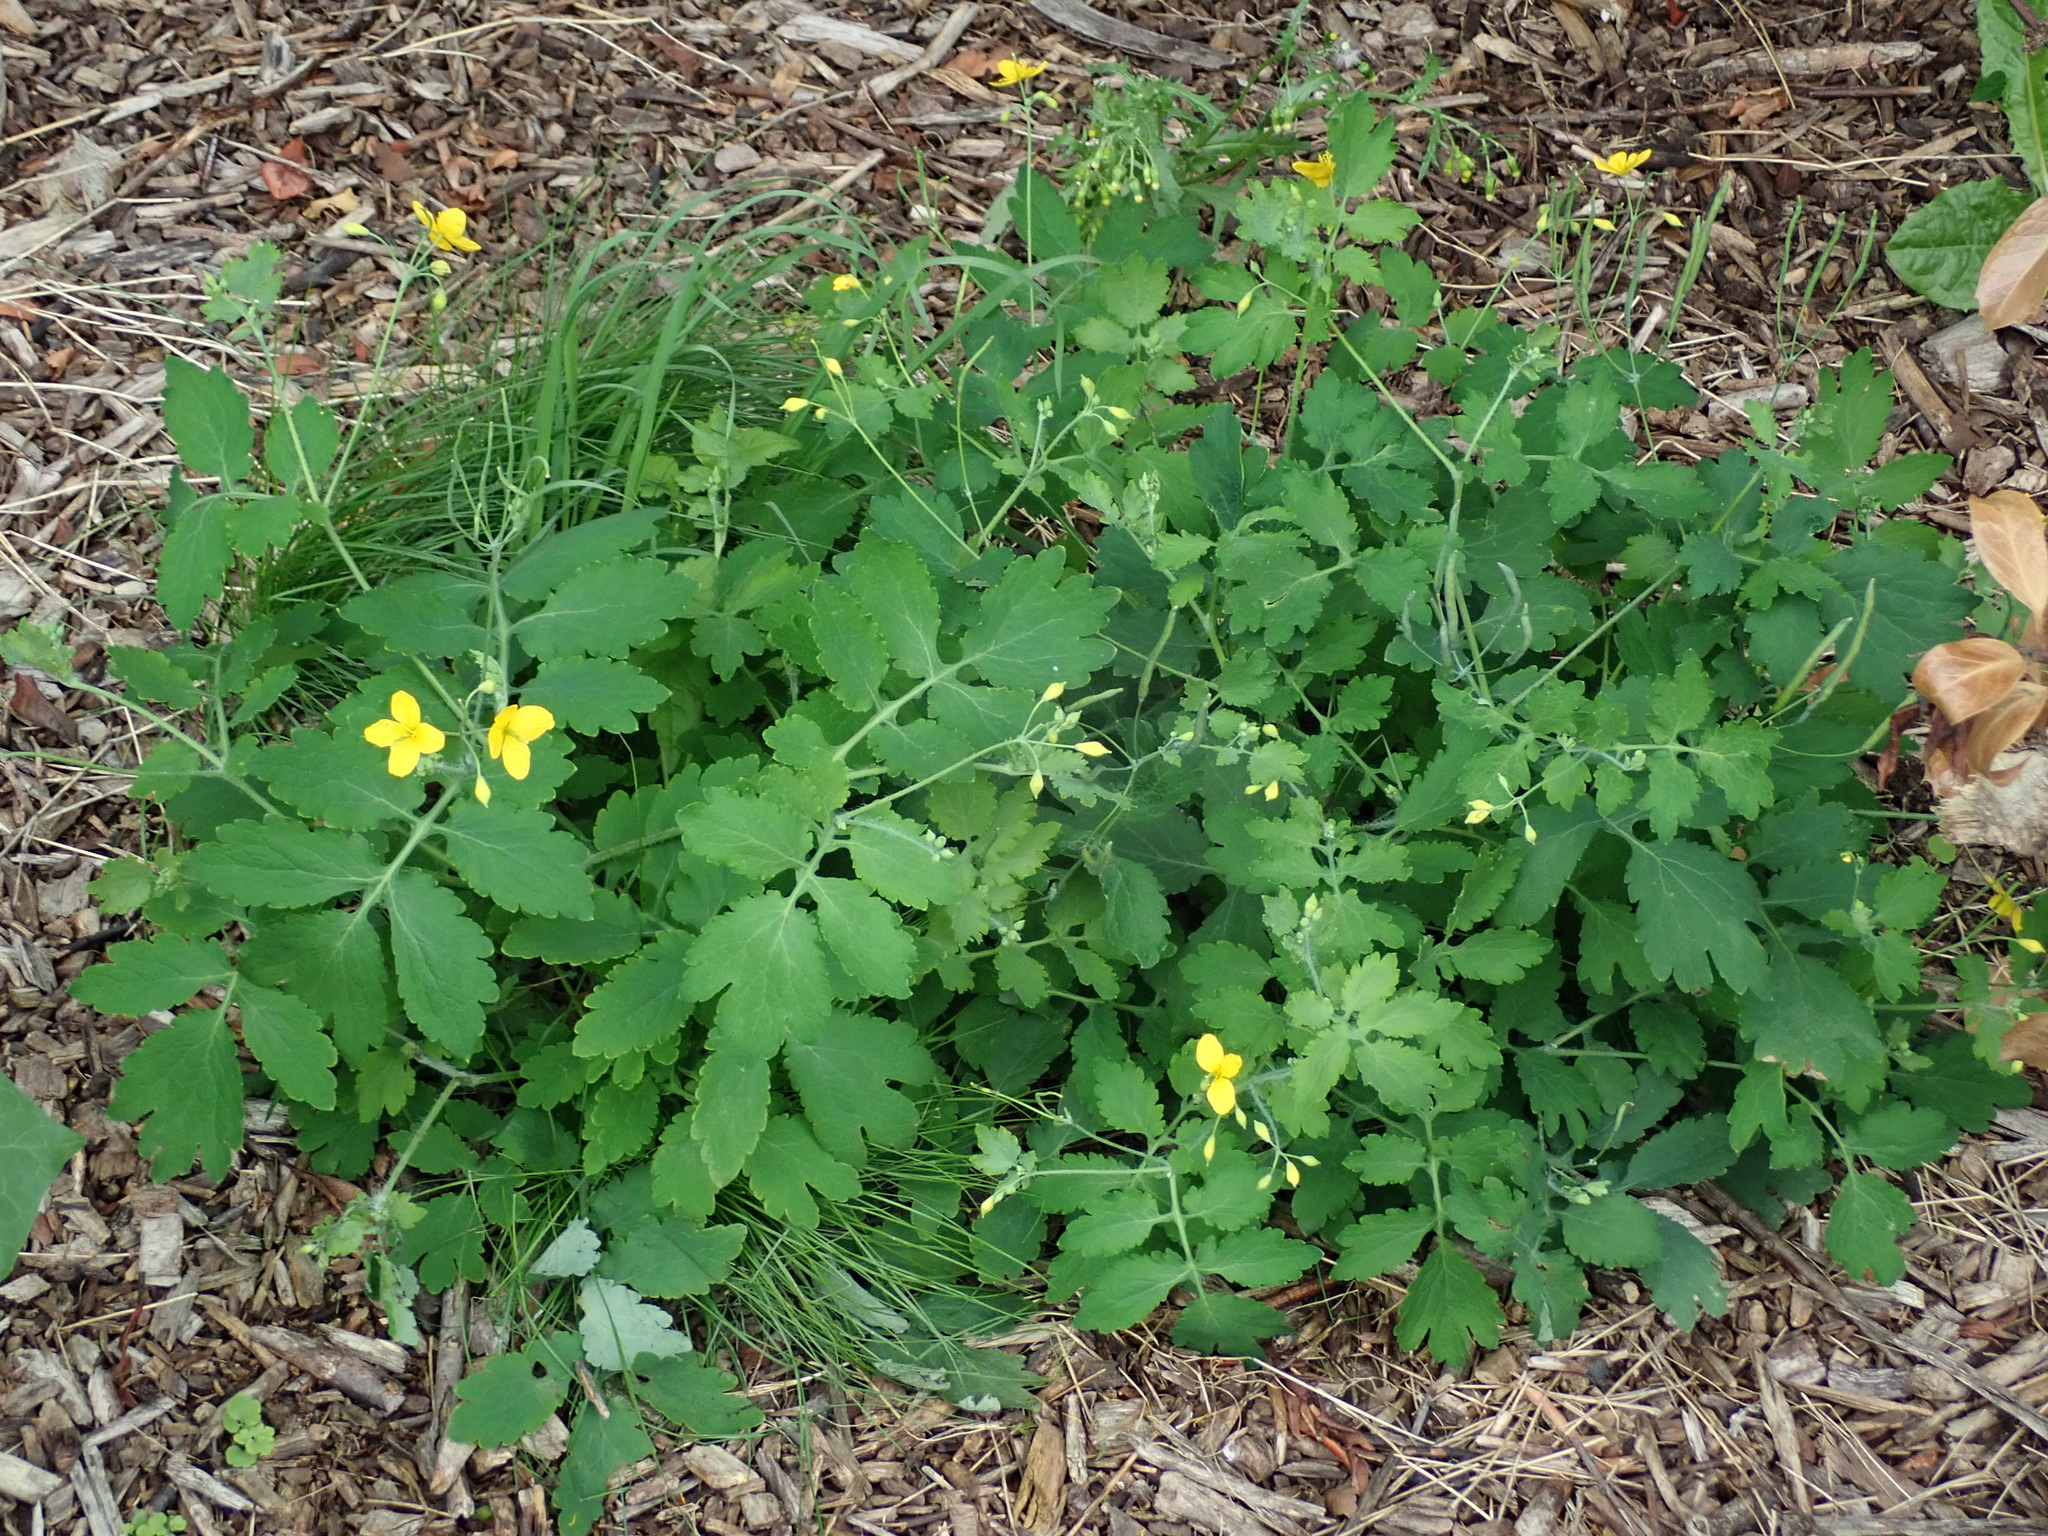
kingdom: Plantae
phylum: Tracheophyta
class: Magnoliopsida
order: Ranunculales
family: Papaveraceae
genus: Chelidonium
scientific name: Chelidonium majus
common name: Greater celandine
